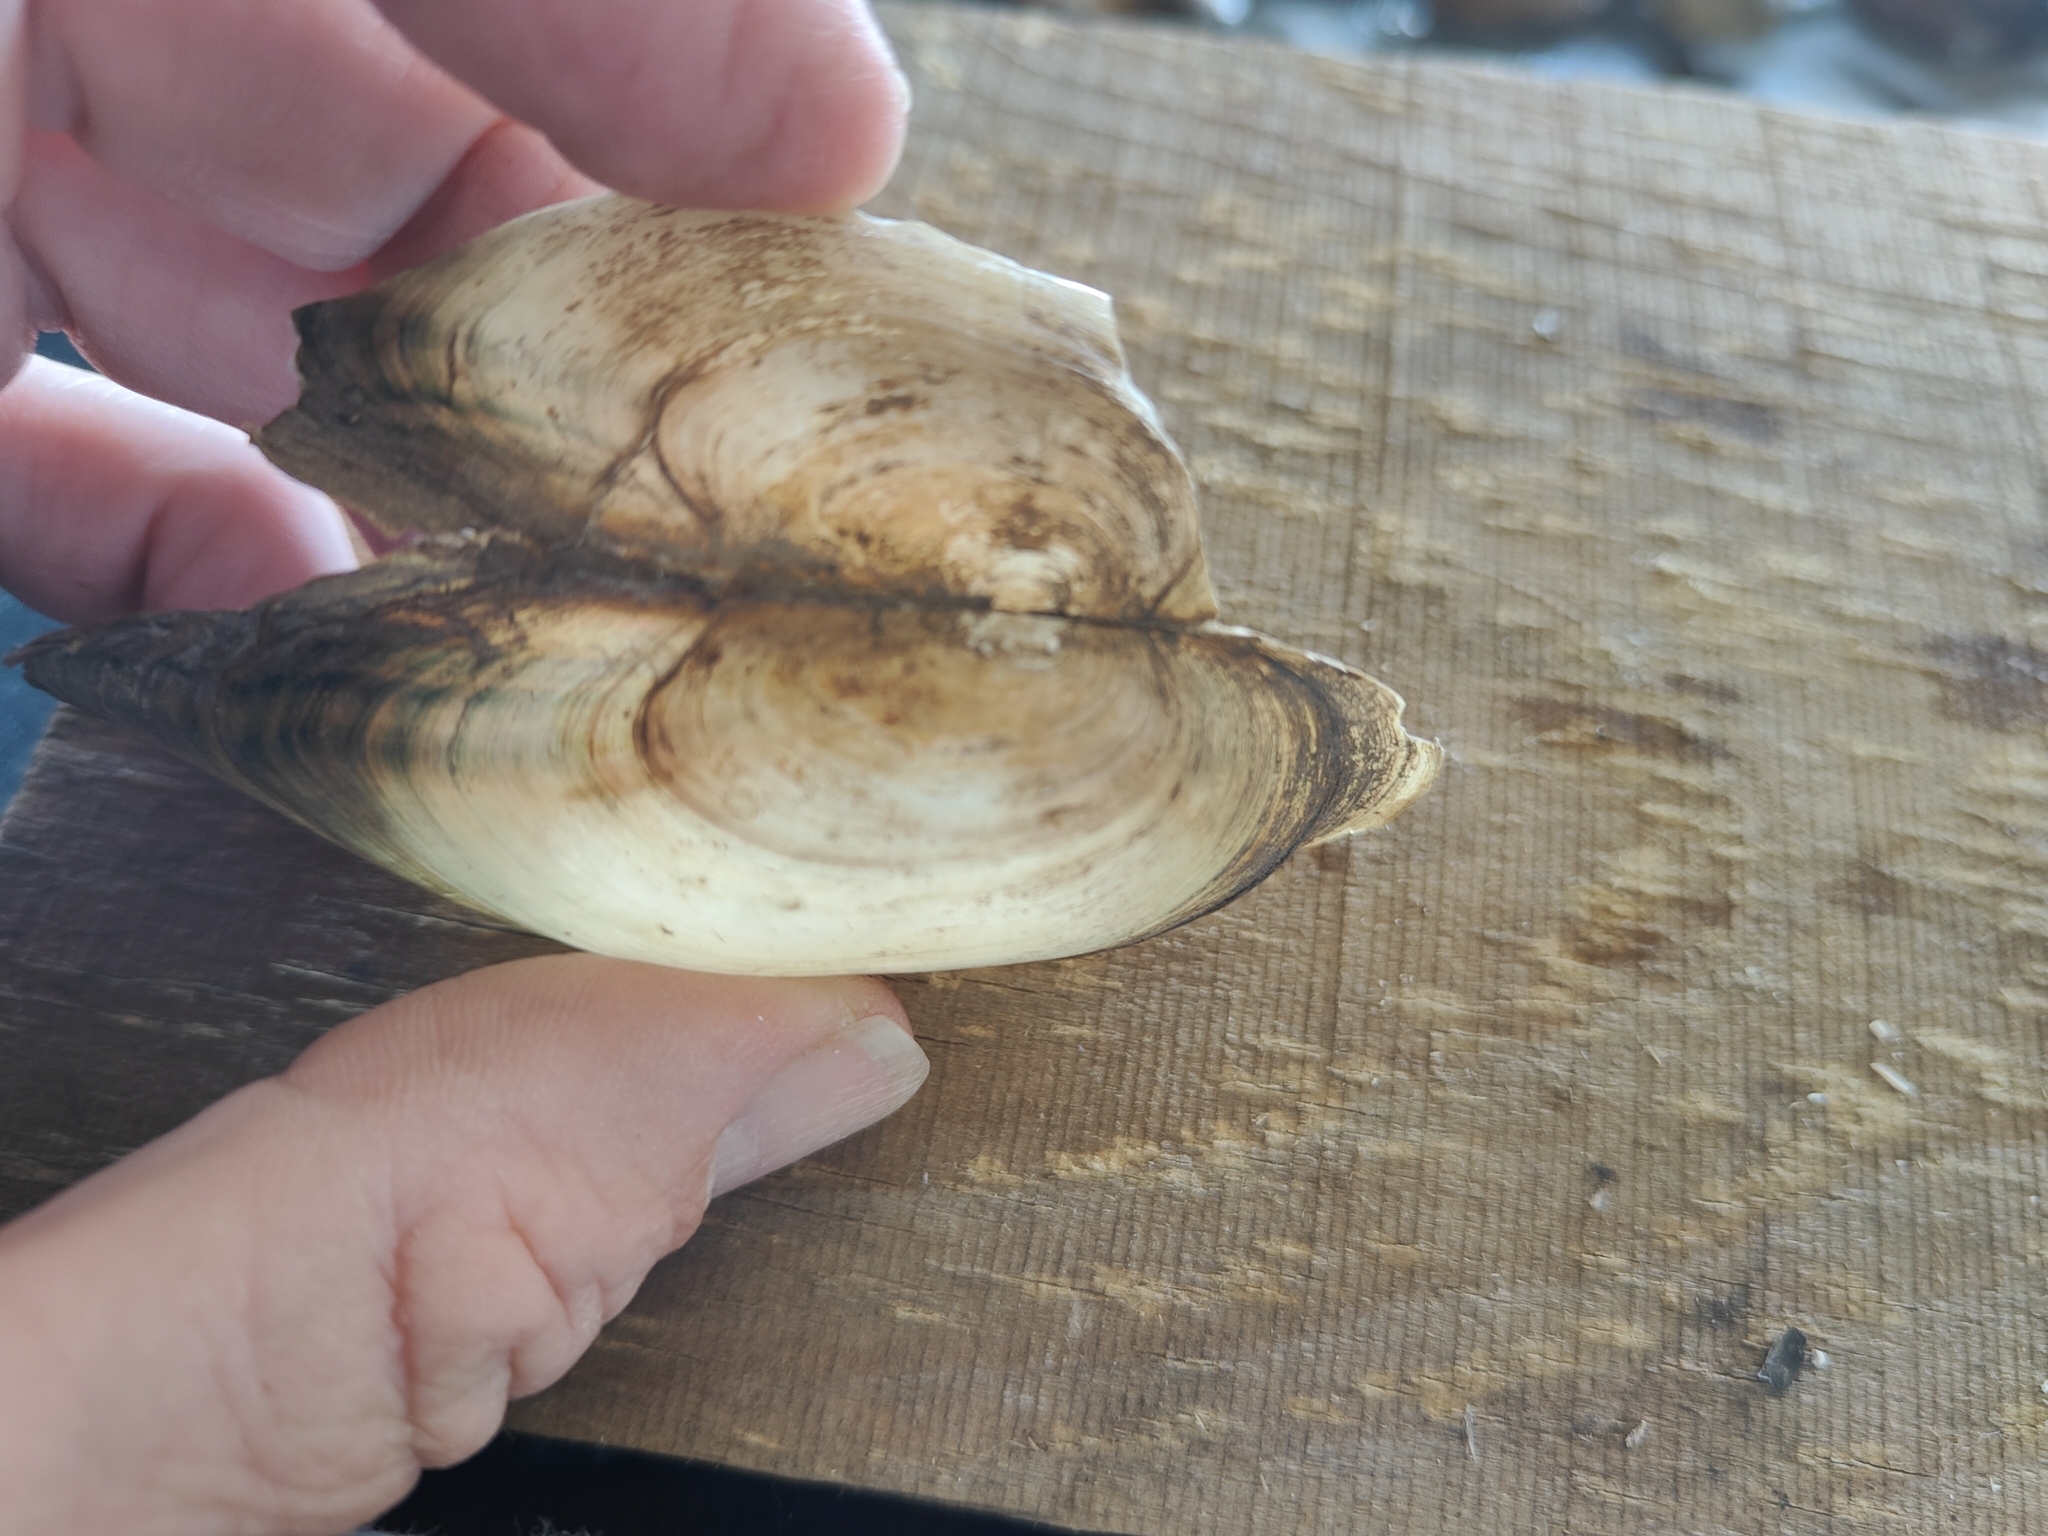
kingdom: Animalia
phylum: Mollusca
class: Bivalvia
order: Unionida
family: Unionidae
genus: Utterbackia
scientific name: Utterbackia imbecillis
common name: Paper pondshell
